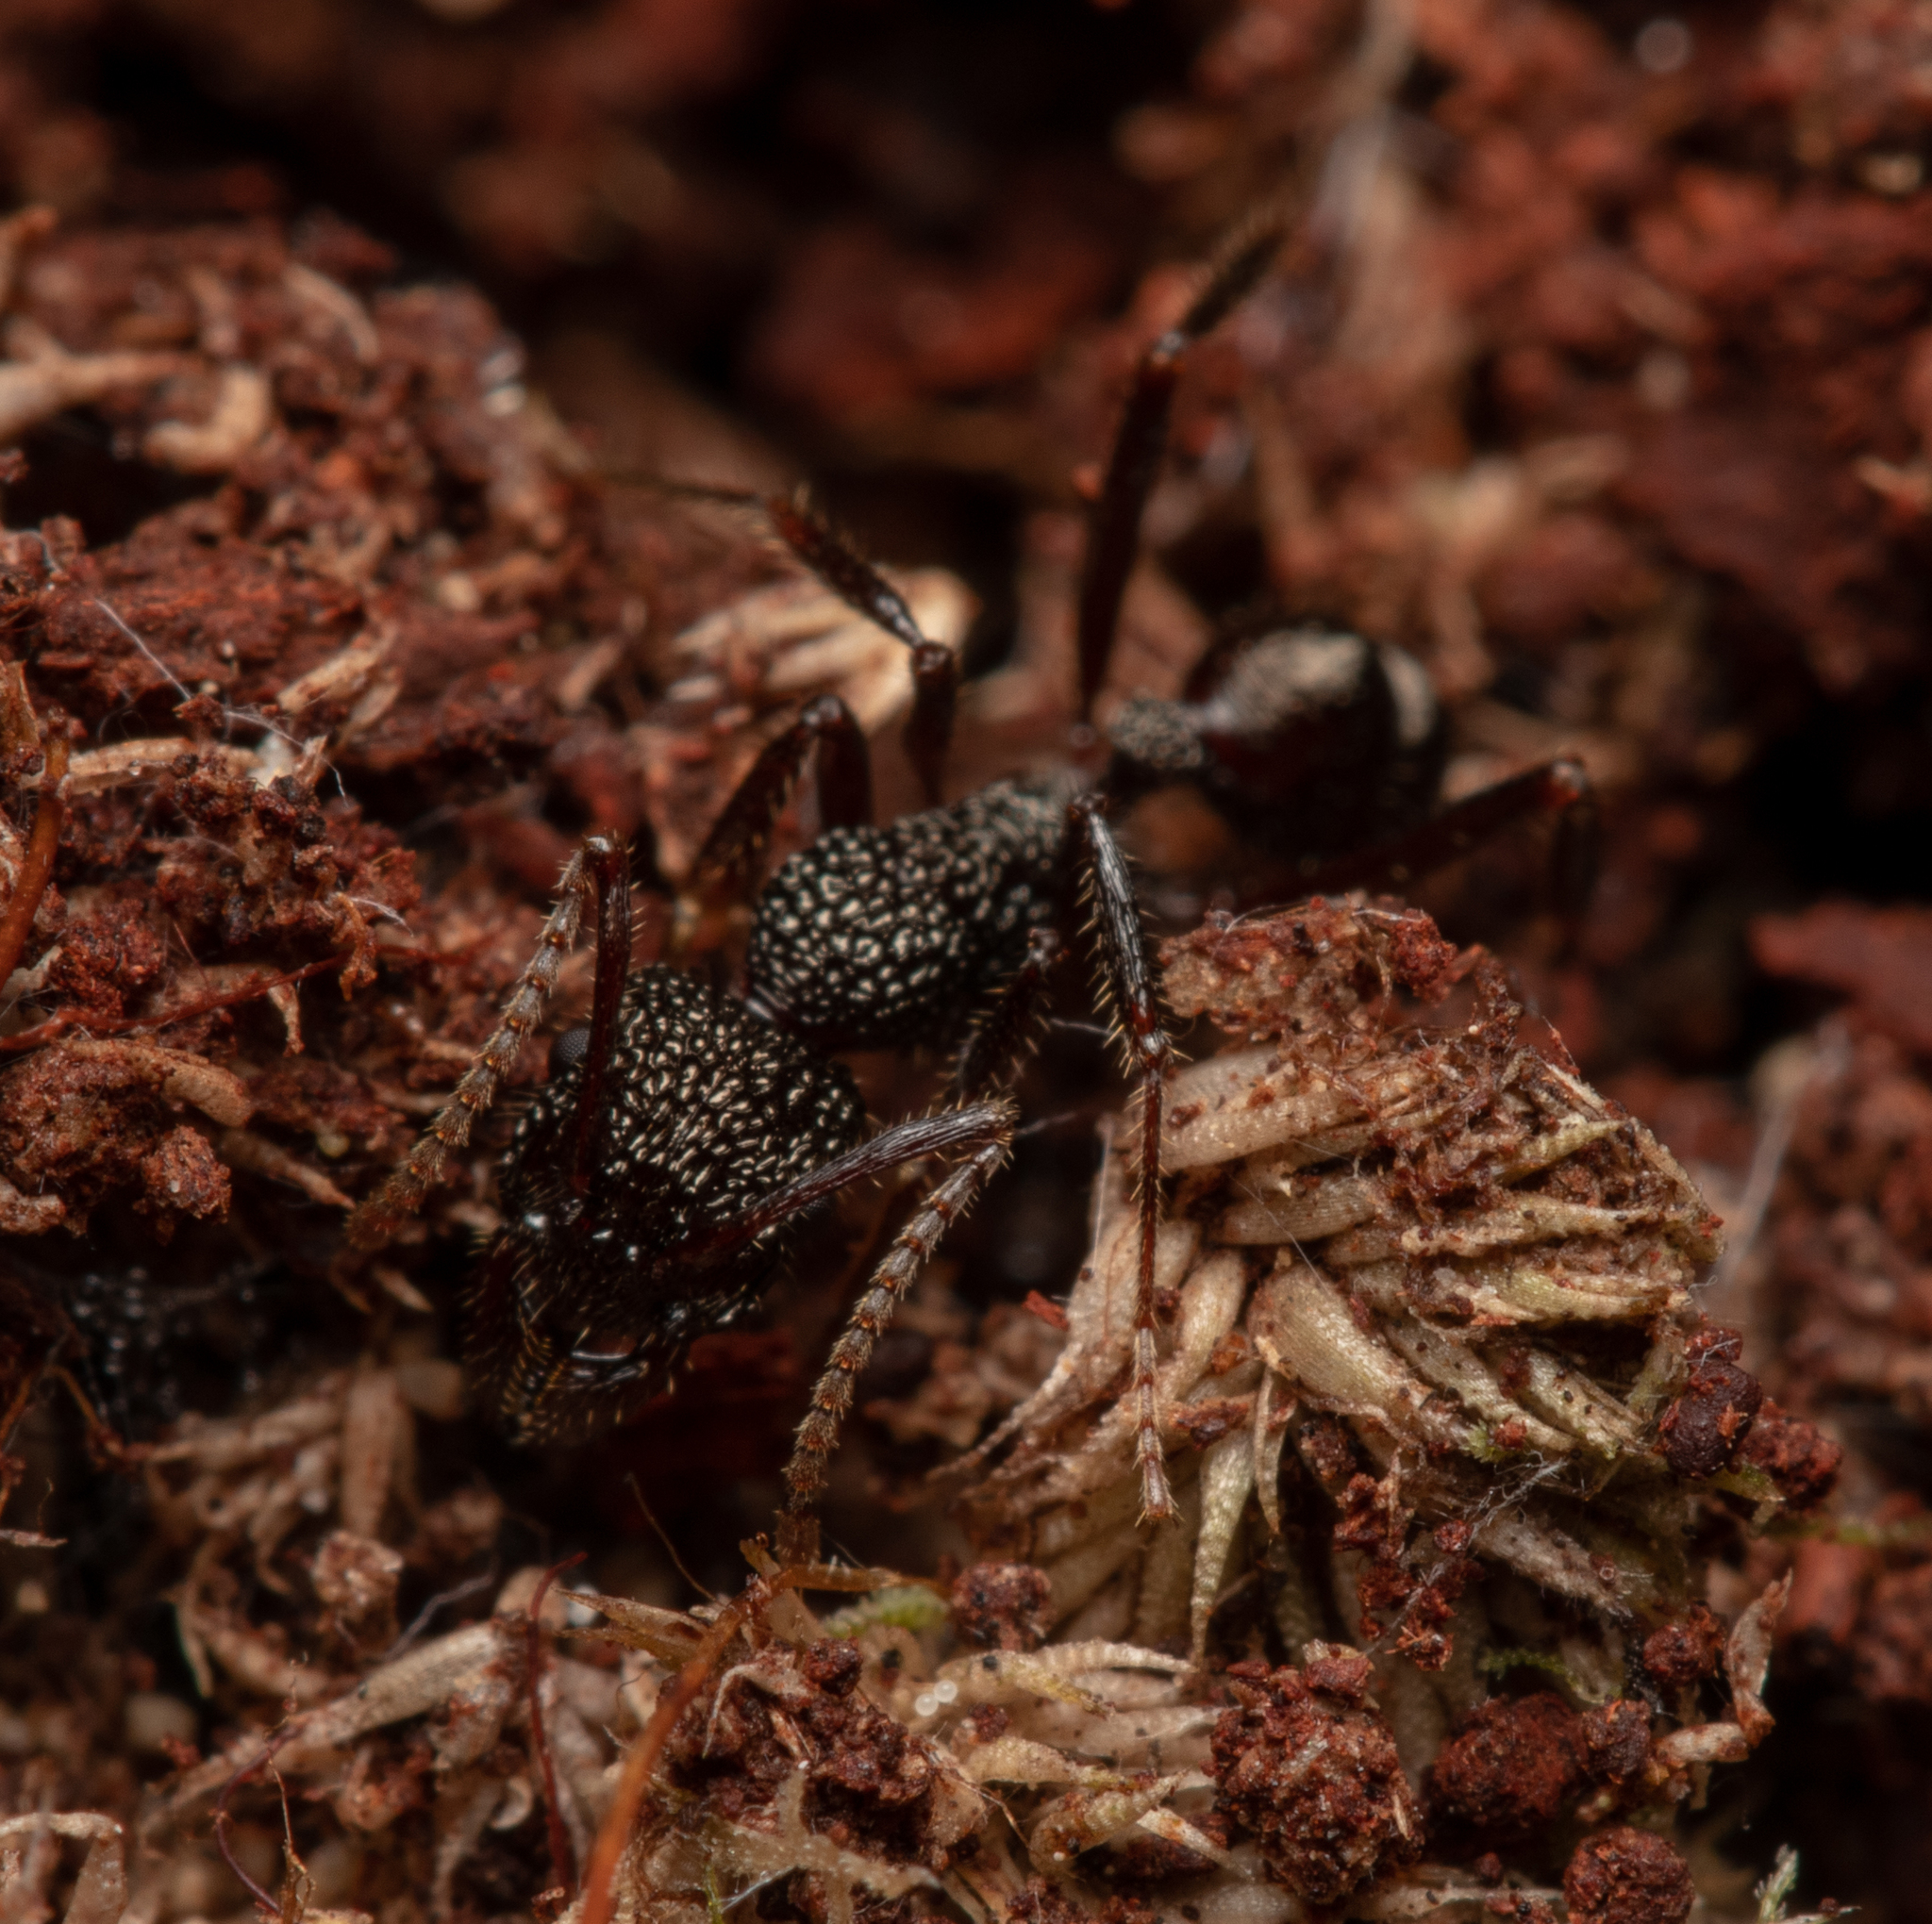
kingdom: Animalia
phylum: Arthropoda
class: Insecta
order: Hymenoptera
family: Formicidae
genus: Rhytidoponera
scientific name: Rhytidoponera impressa
